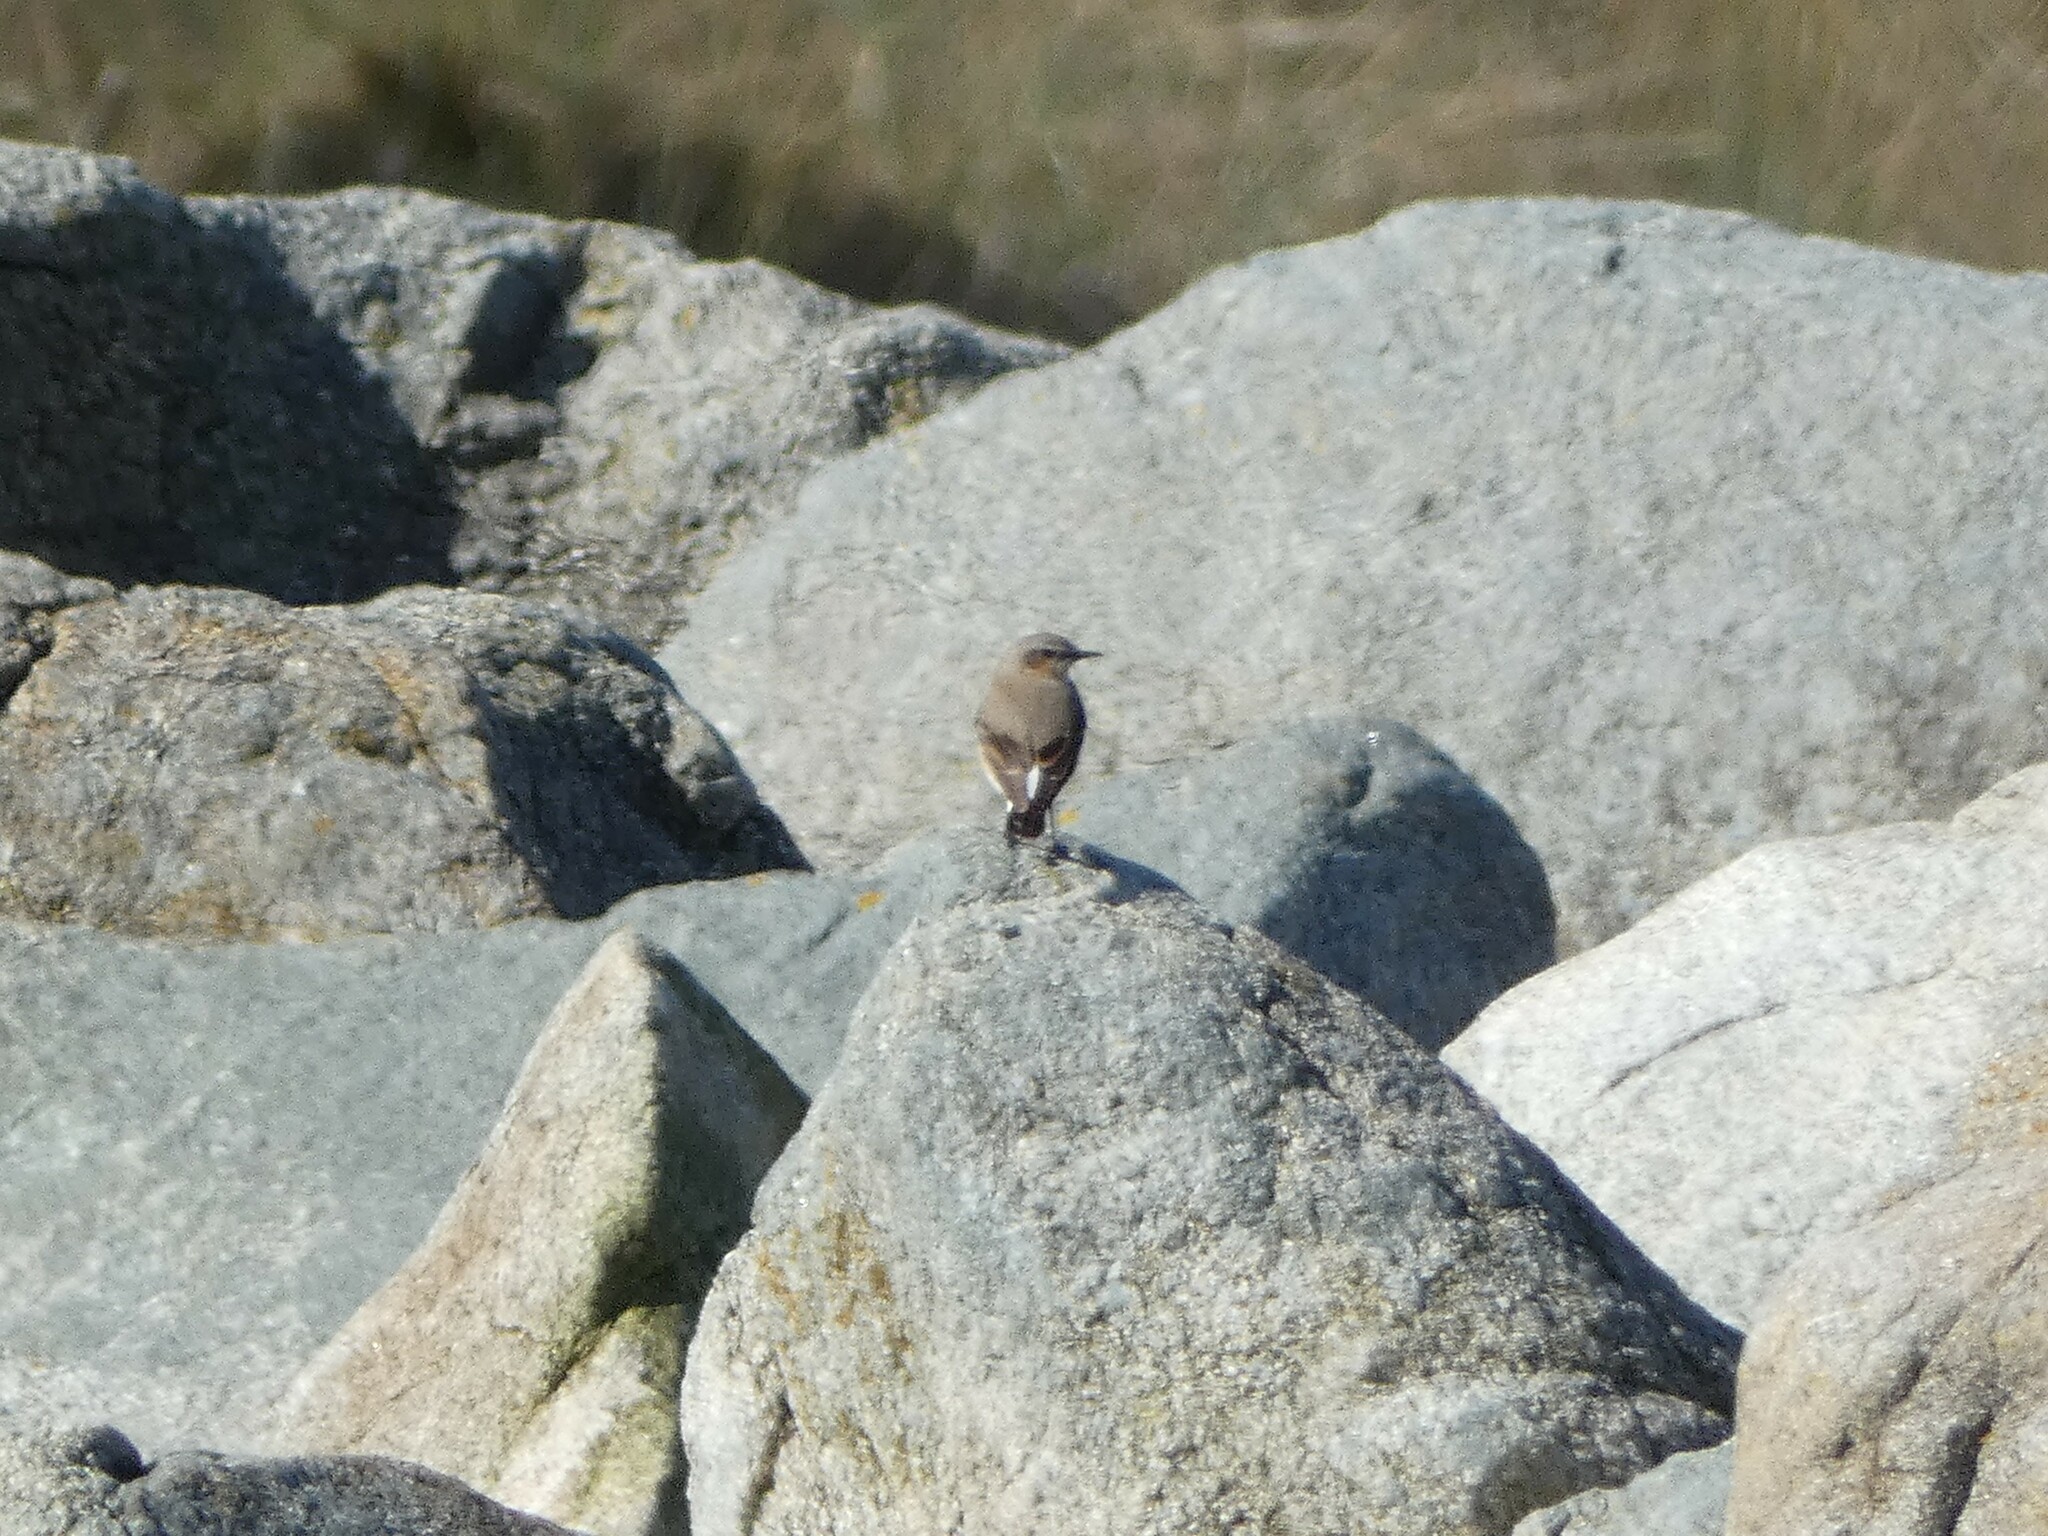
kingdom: Animalia
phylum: Chordata
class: Aves
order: Passeriformes
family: Muscicapidae
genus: Oenanthe
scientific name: Oenanthe oenanthe
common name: Northern wheatear
